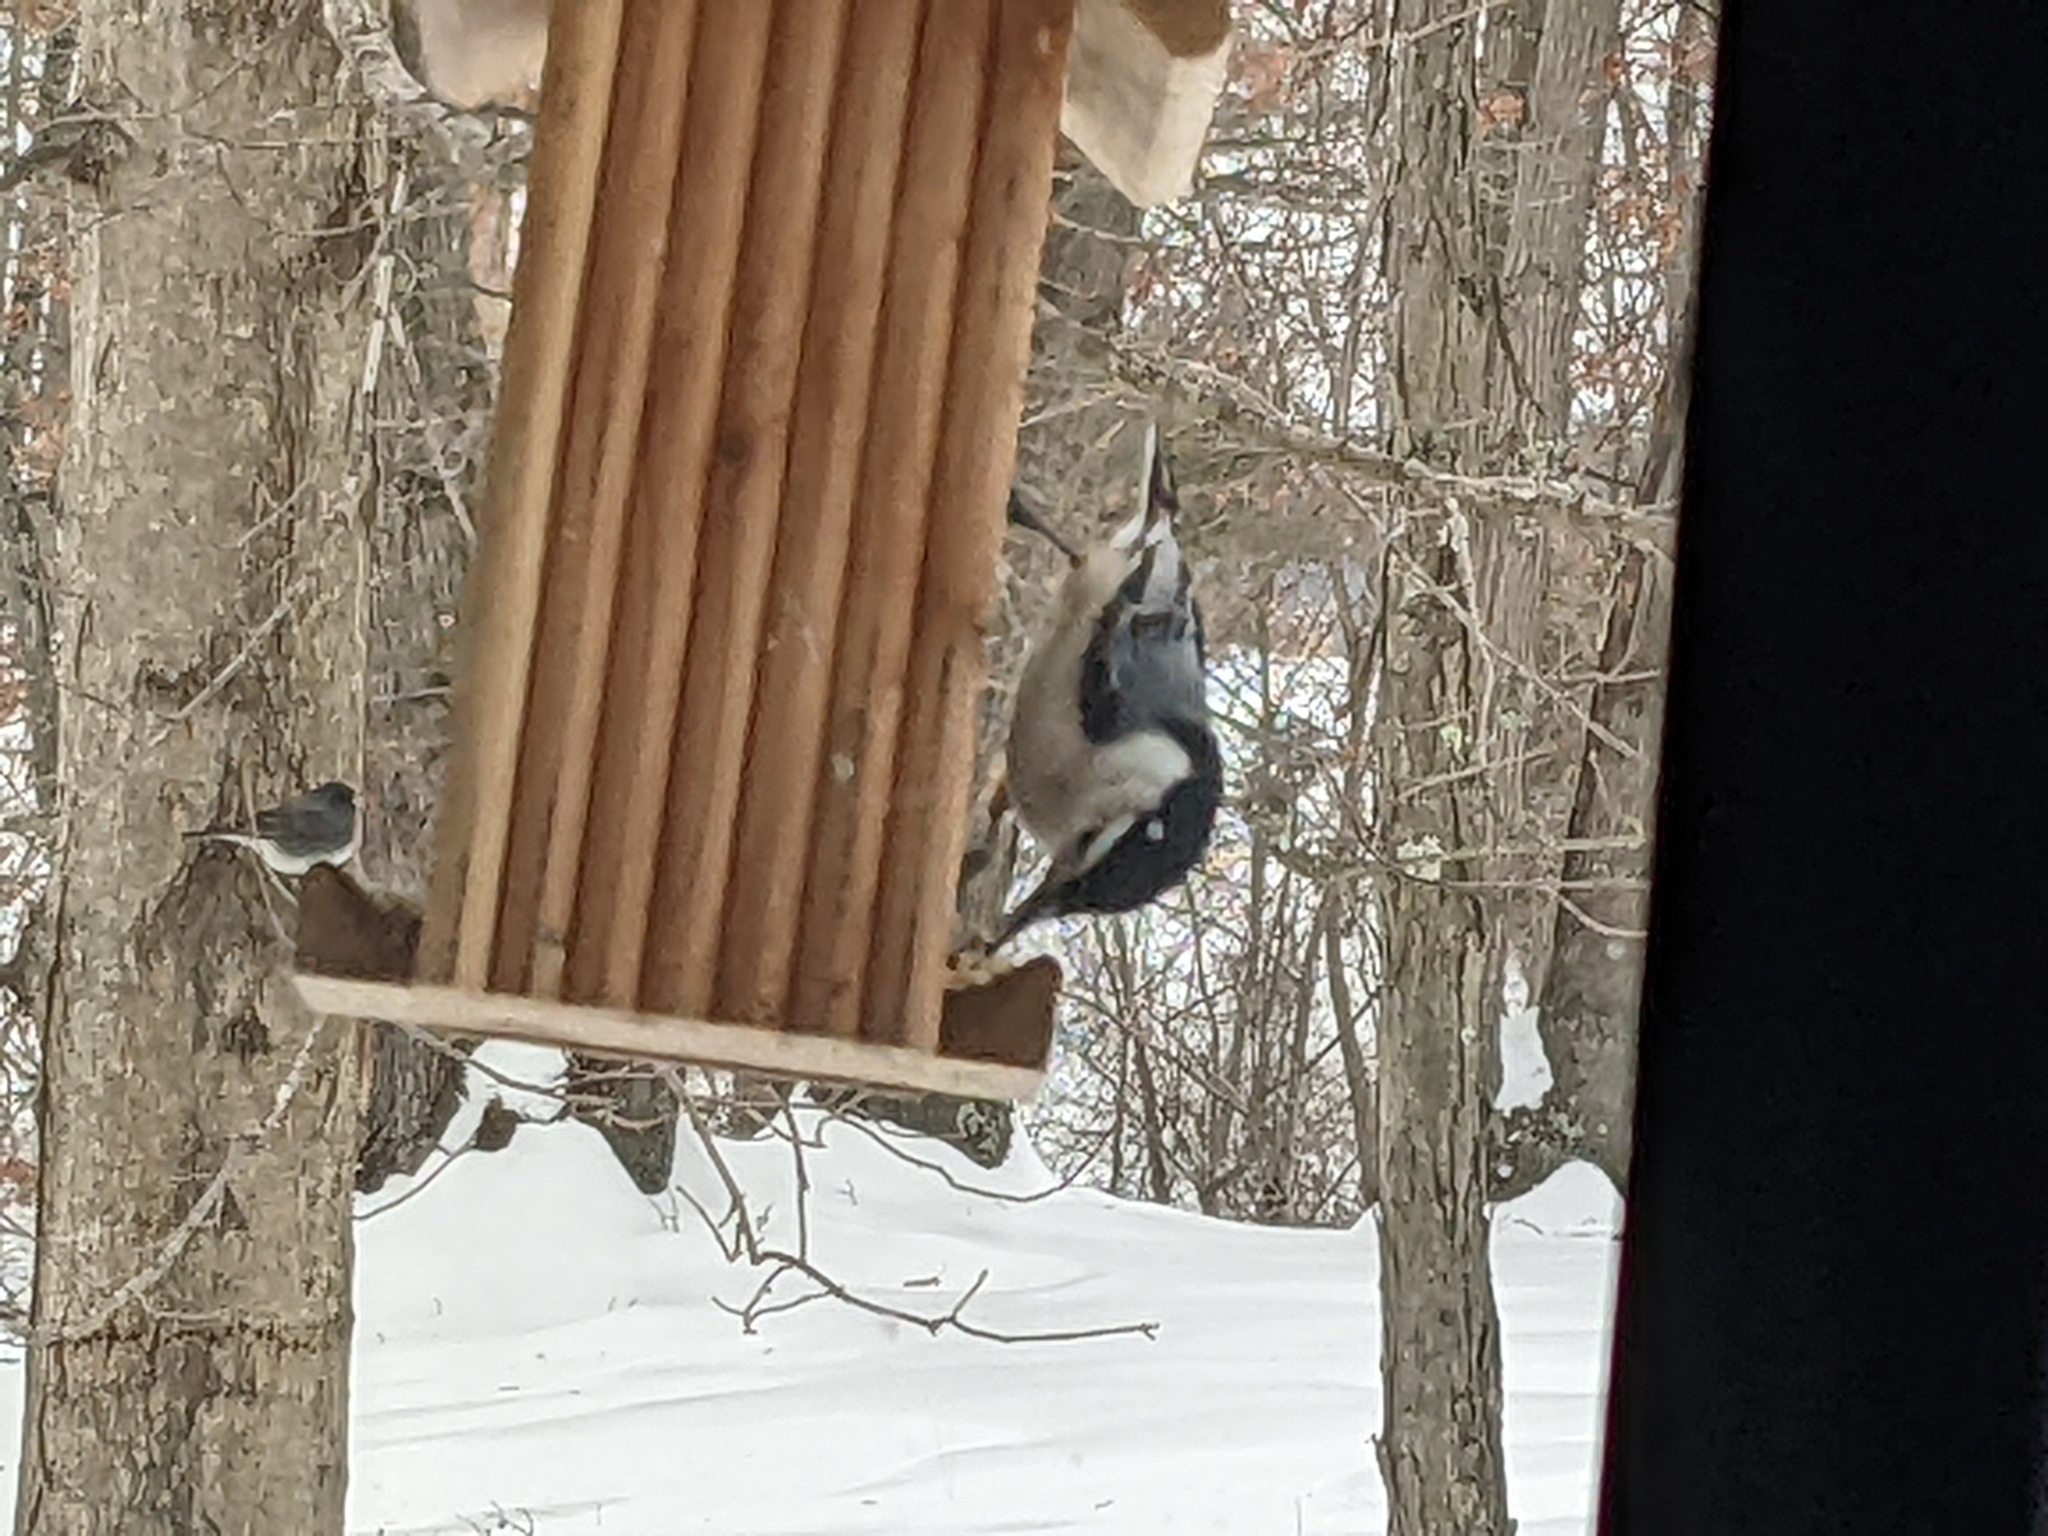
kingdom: Animalia
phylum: Chordata
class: Aves
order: Passeriformes
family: Sittidae
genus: Sitta
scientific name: Sitta carolinensis
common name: White-breasted nuthatch
